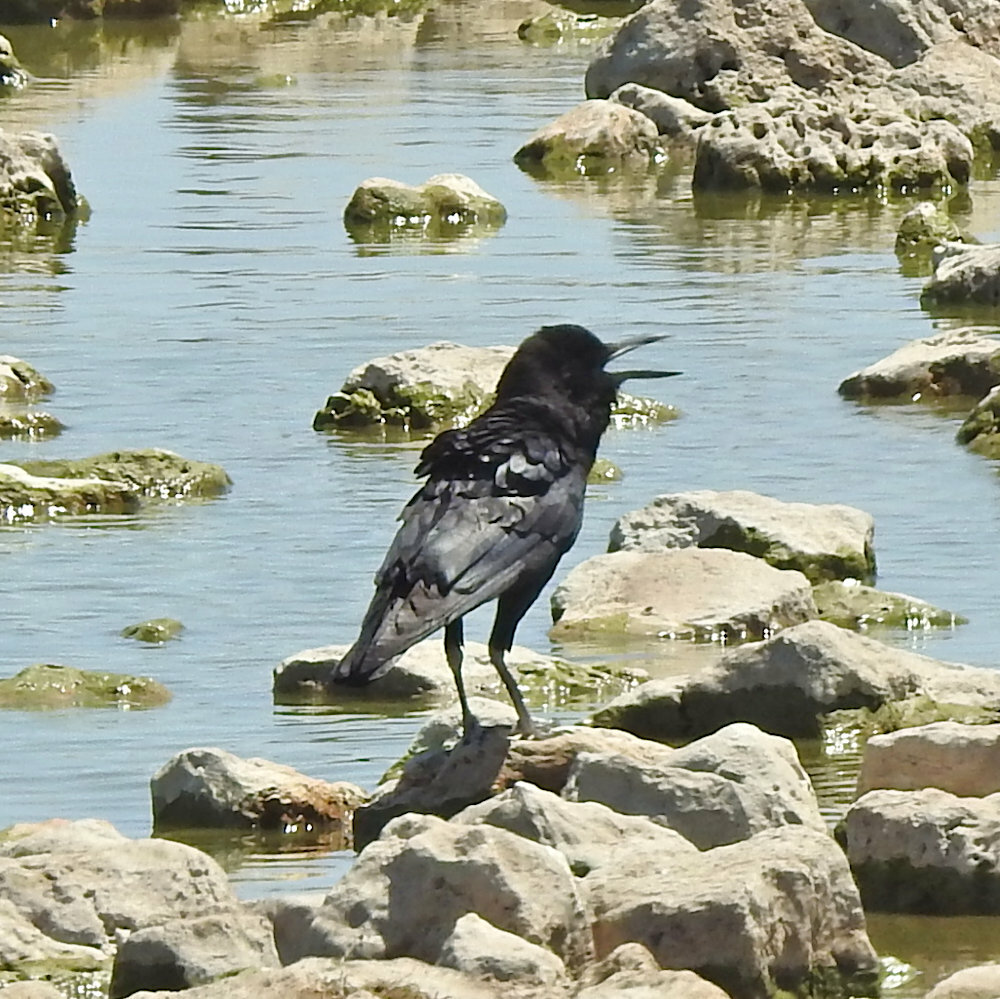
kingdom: Animalia
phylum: Chordata
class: Aves
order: Passeriformes
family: Corvidae
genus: Corvus
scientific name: Corvus capensis
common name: Cape crow
